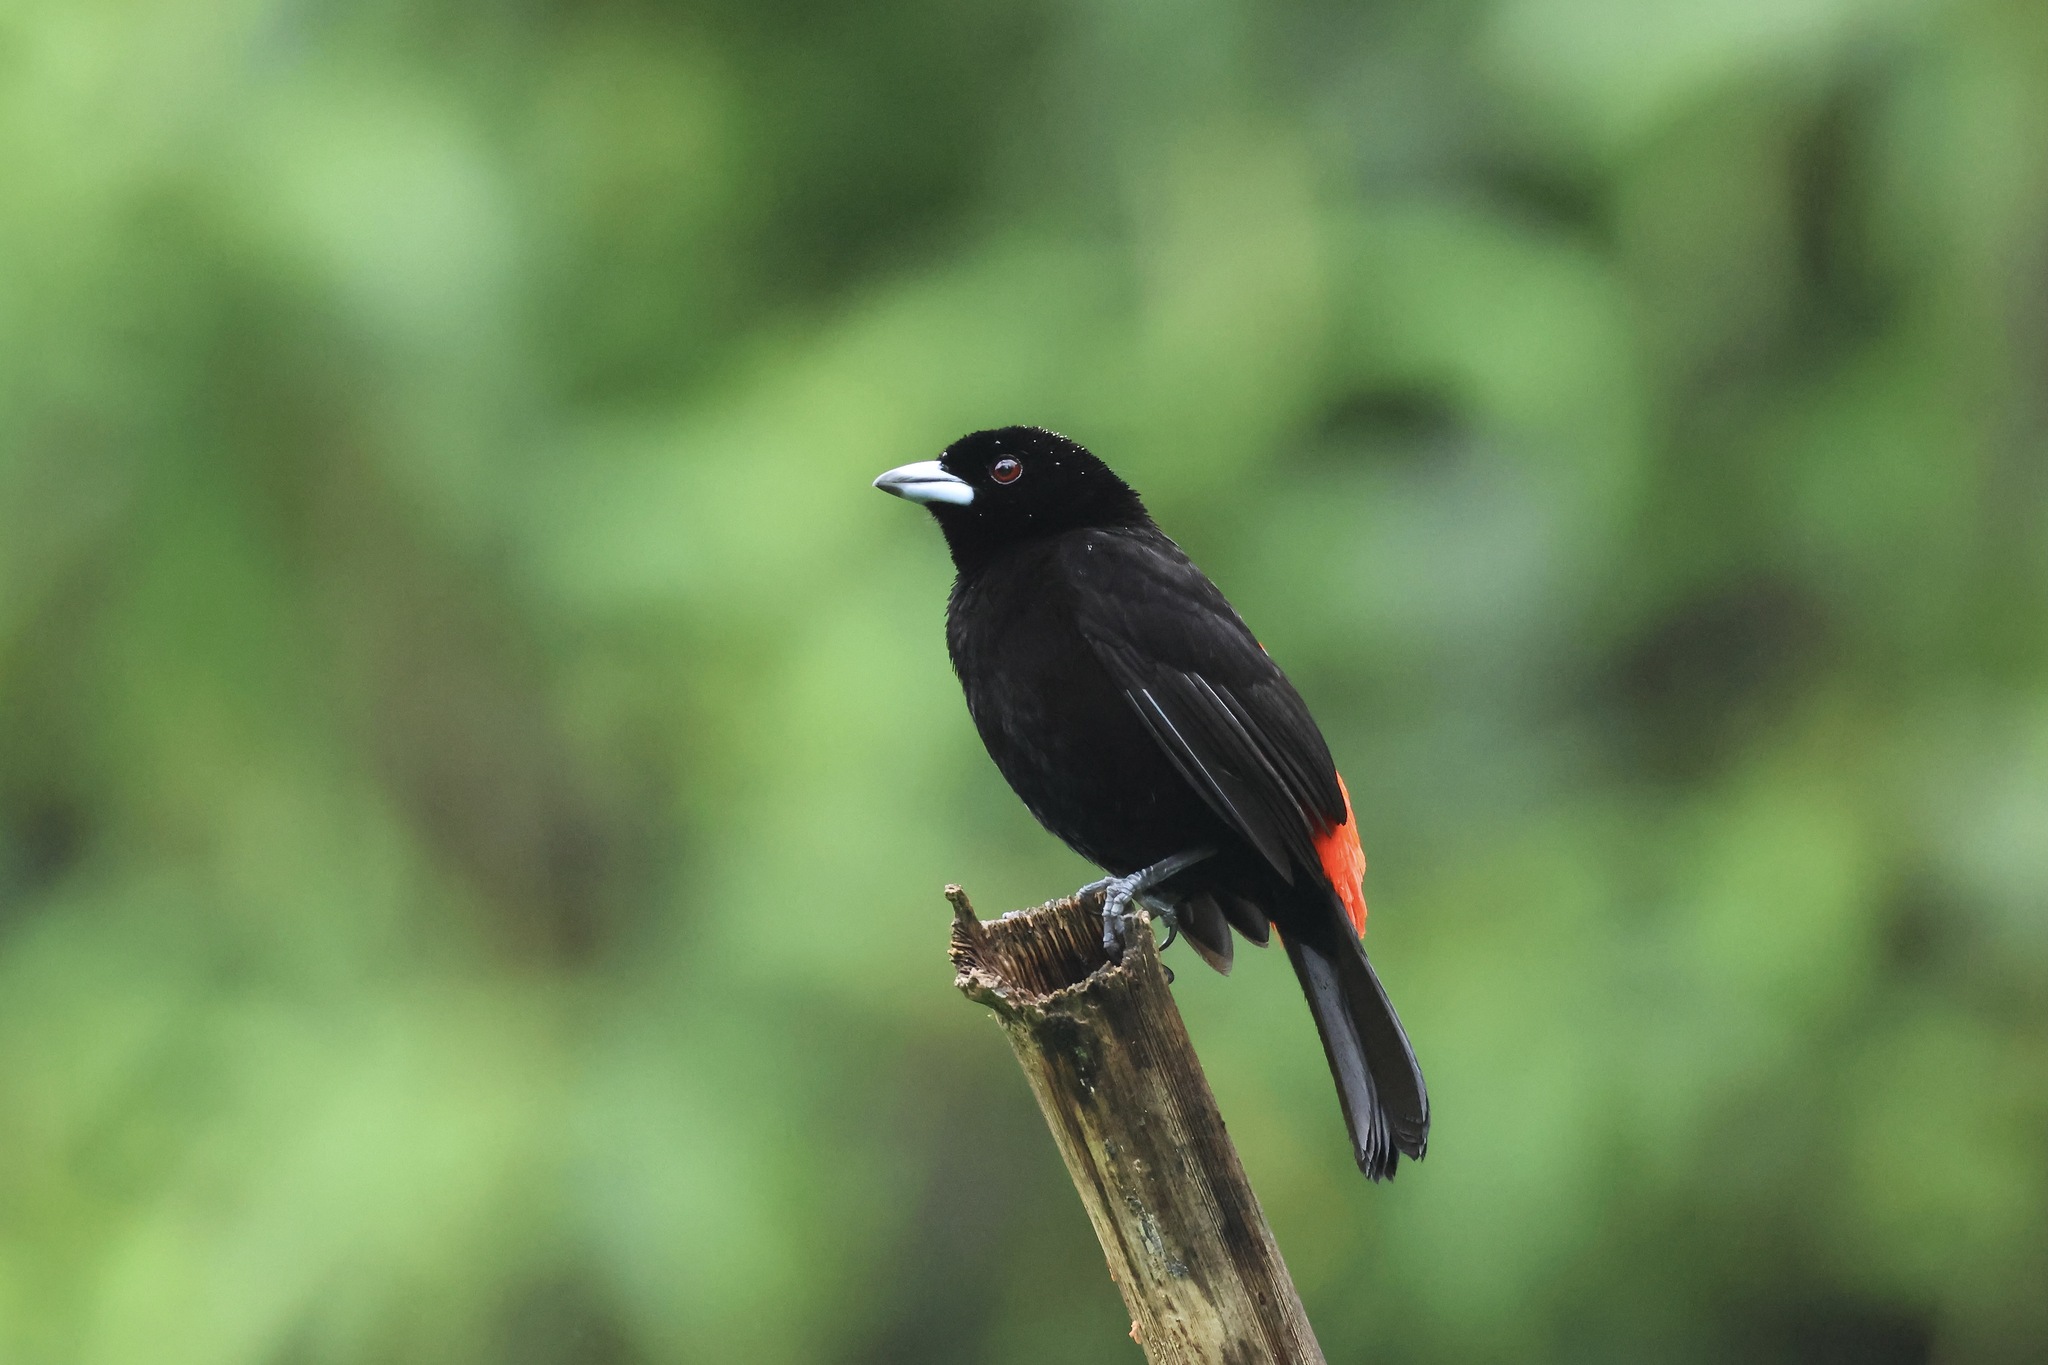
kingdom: Animalia
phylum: Chordata
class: Aves
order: Passeriformes
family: Thraupidae
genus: Ramphocelus
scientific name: Ramphocelus passerinii
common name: Passerini's tanager
